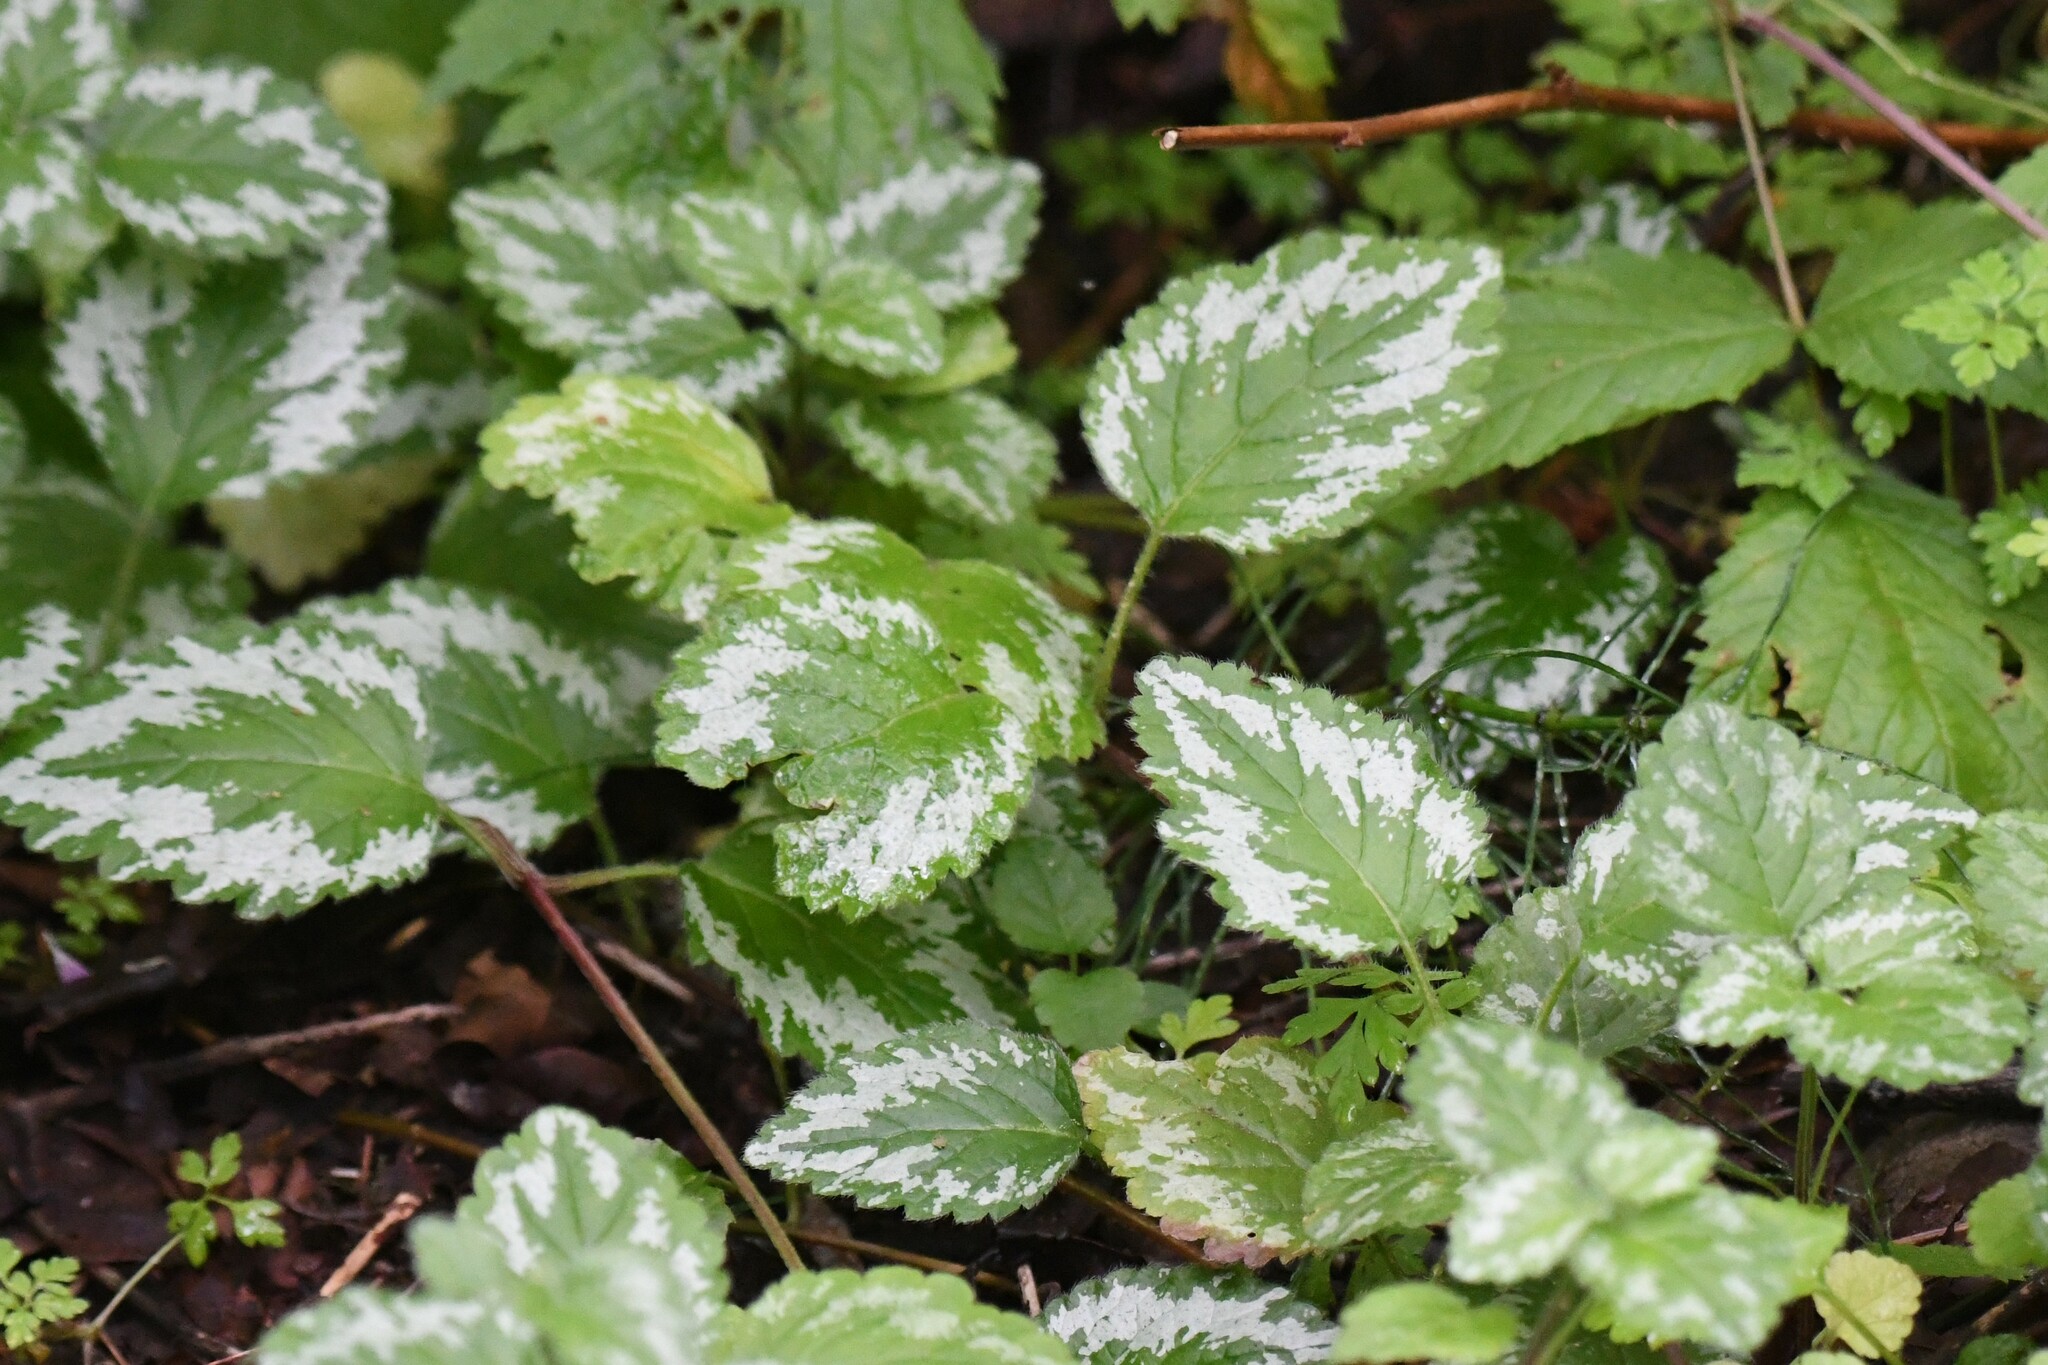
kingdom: Plantae
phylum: Tracheophyta
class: Magnoliopsida
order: Lamiales
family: Lamiaceae
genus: Lamium
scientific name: Lamium galeobdolon
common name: Yellow archangel
